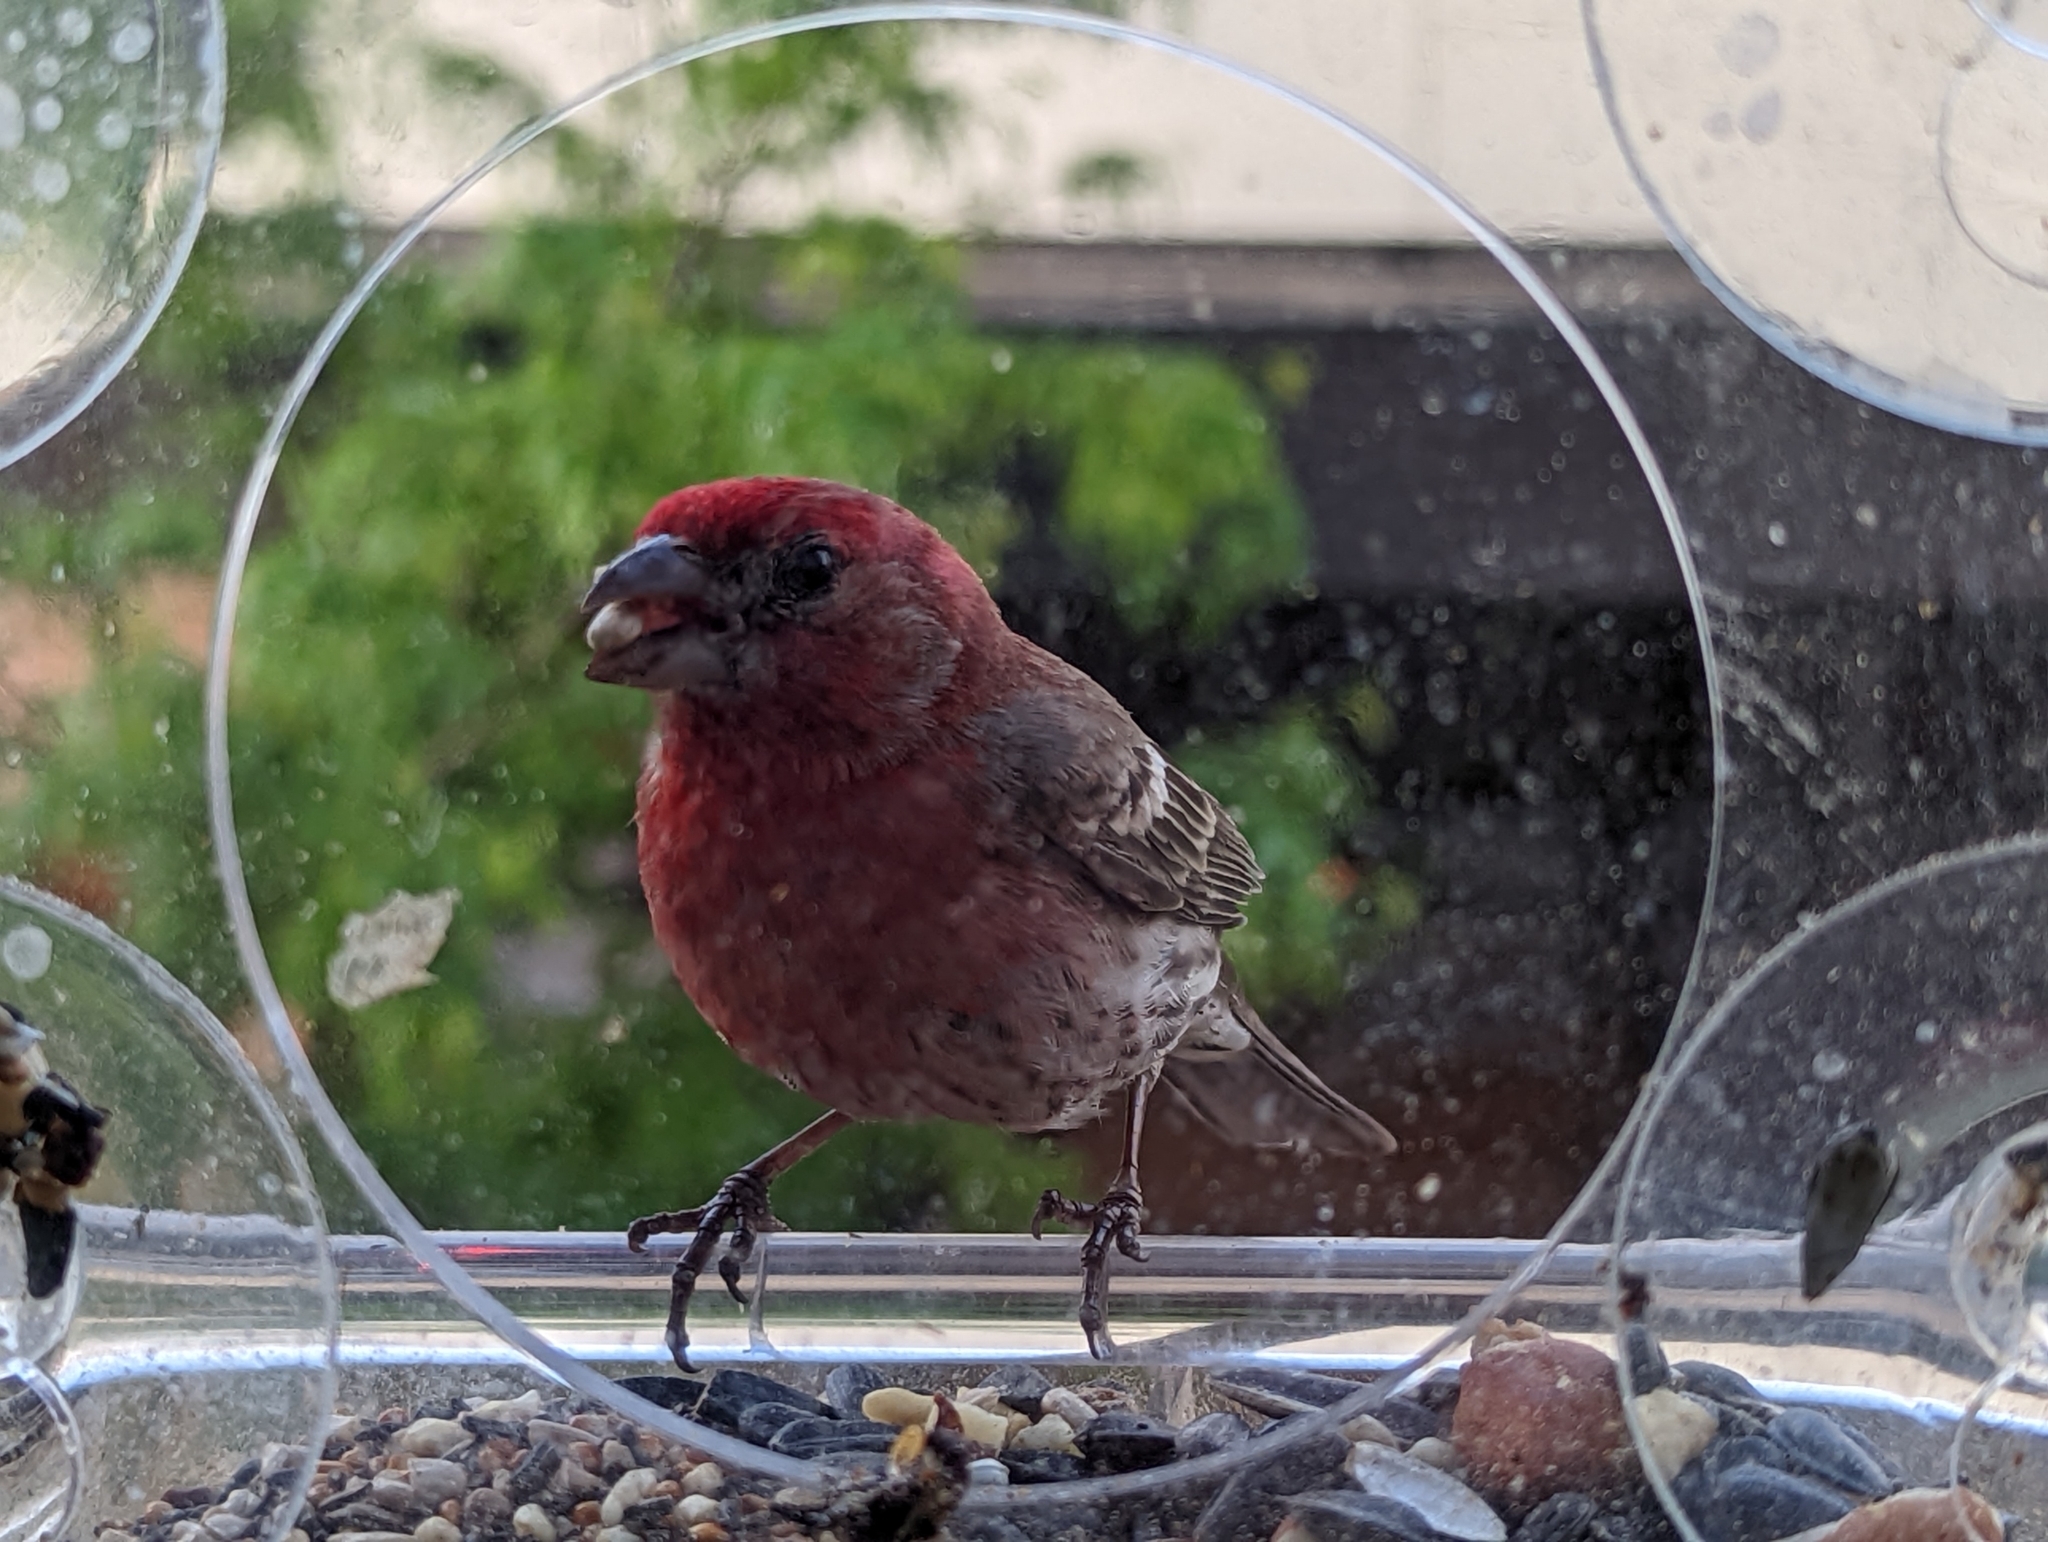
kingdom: Animalia
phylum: Chordata
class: Aves
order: Passeriformes
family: Fringillidae
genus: Haemorhous
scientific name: Haemorhous mexicanus
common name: House finch
